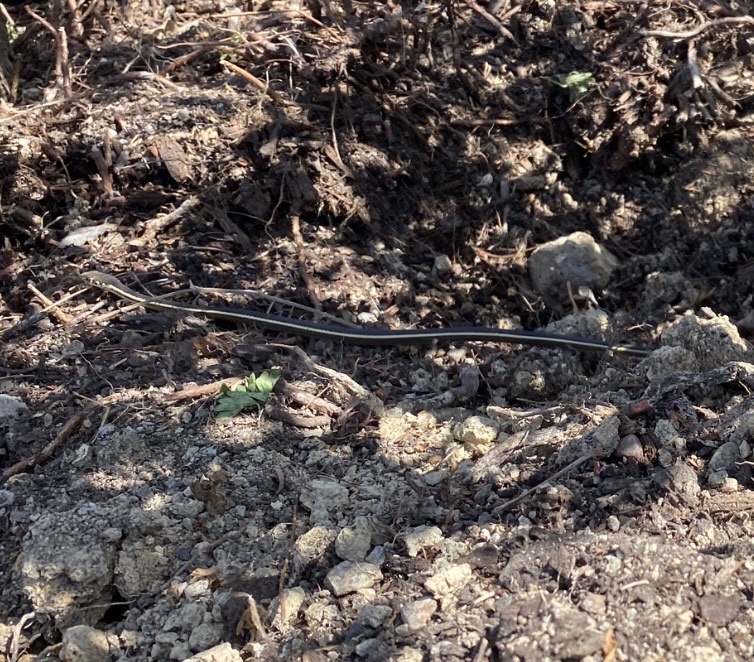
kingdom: Animalia
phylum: Chordata
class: Squamata
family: Colubridae
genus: Masticophis
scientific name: Masticophis lateralis
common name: Striped racer
